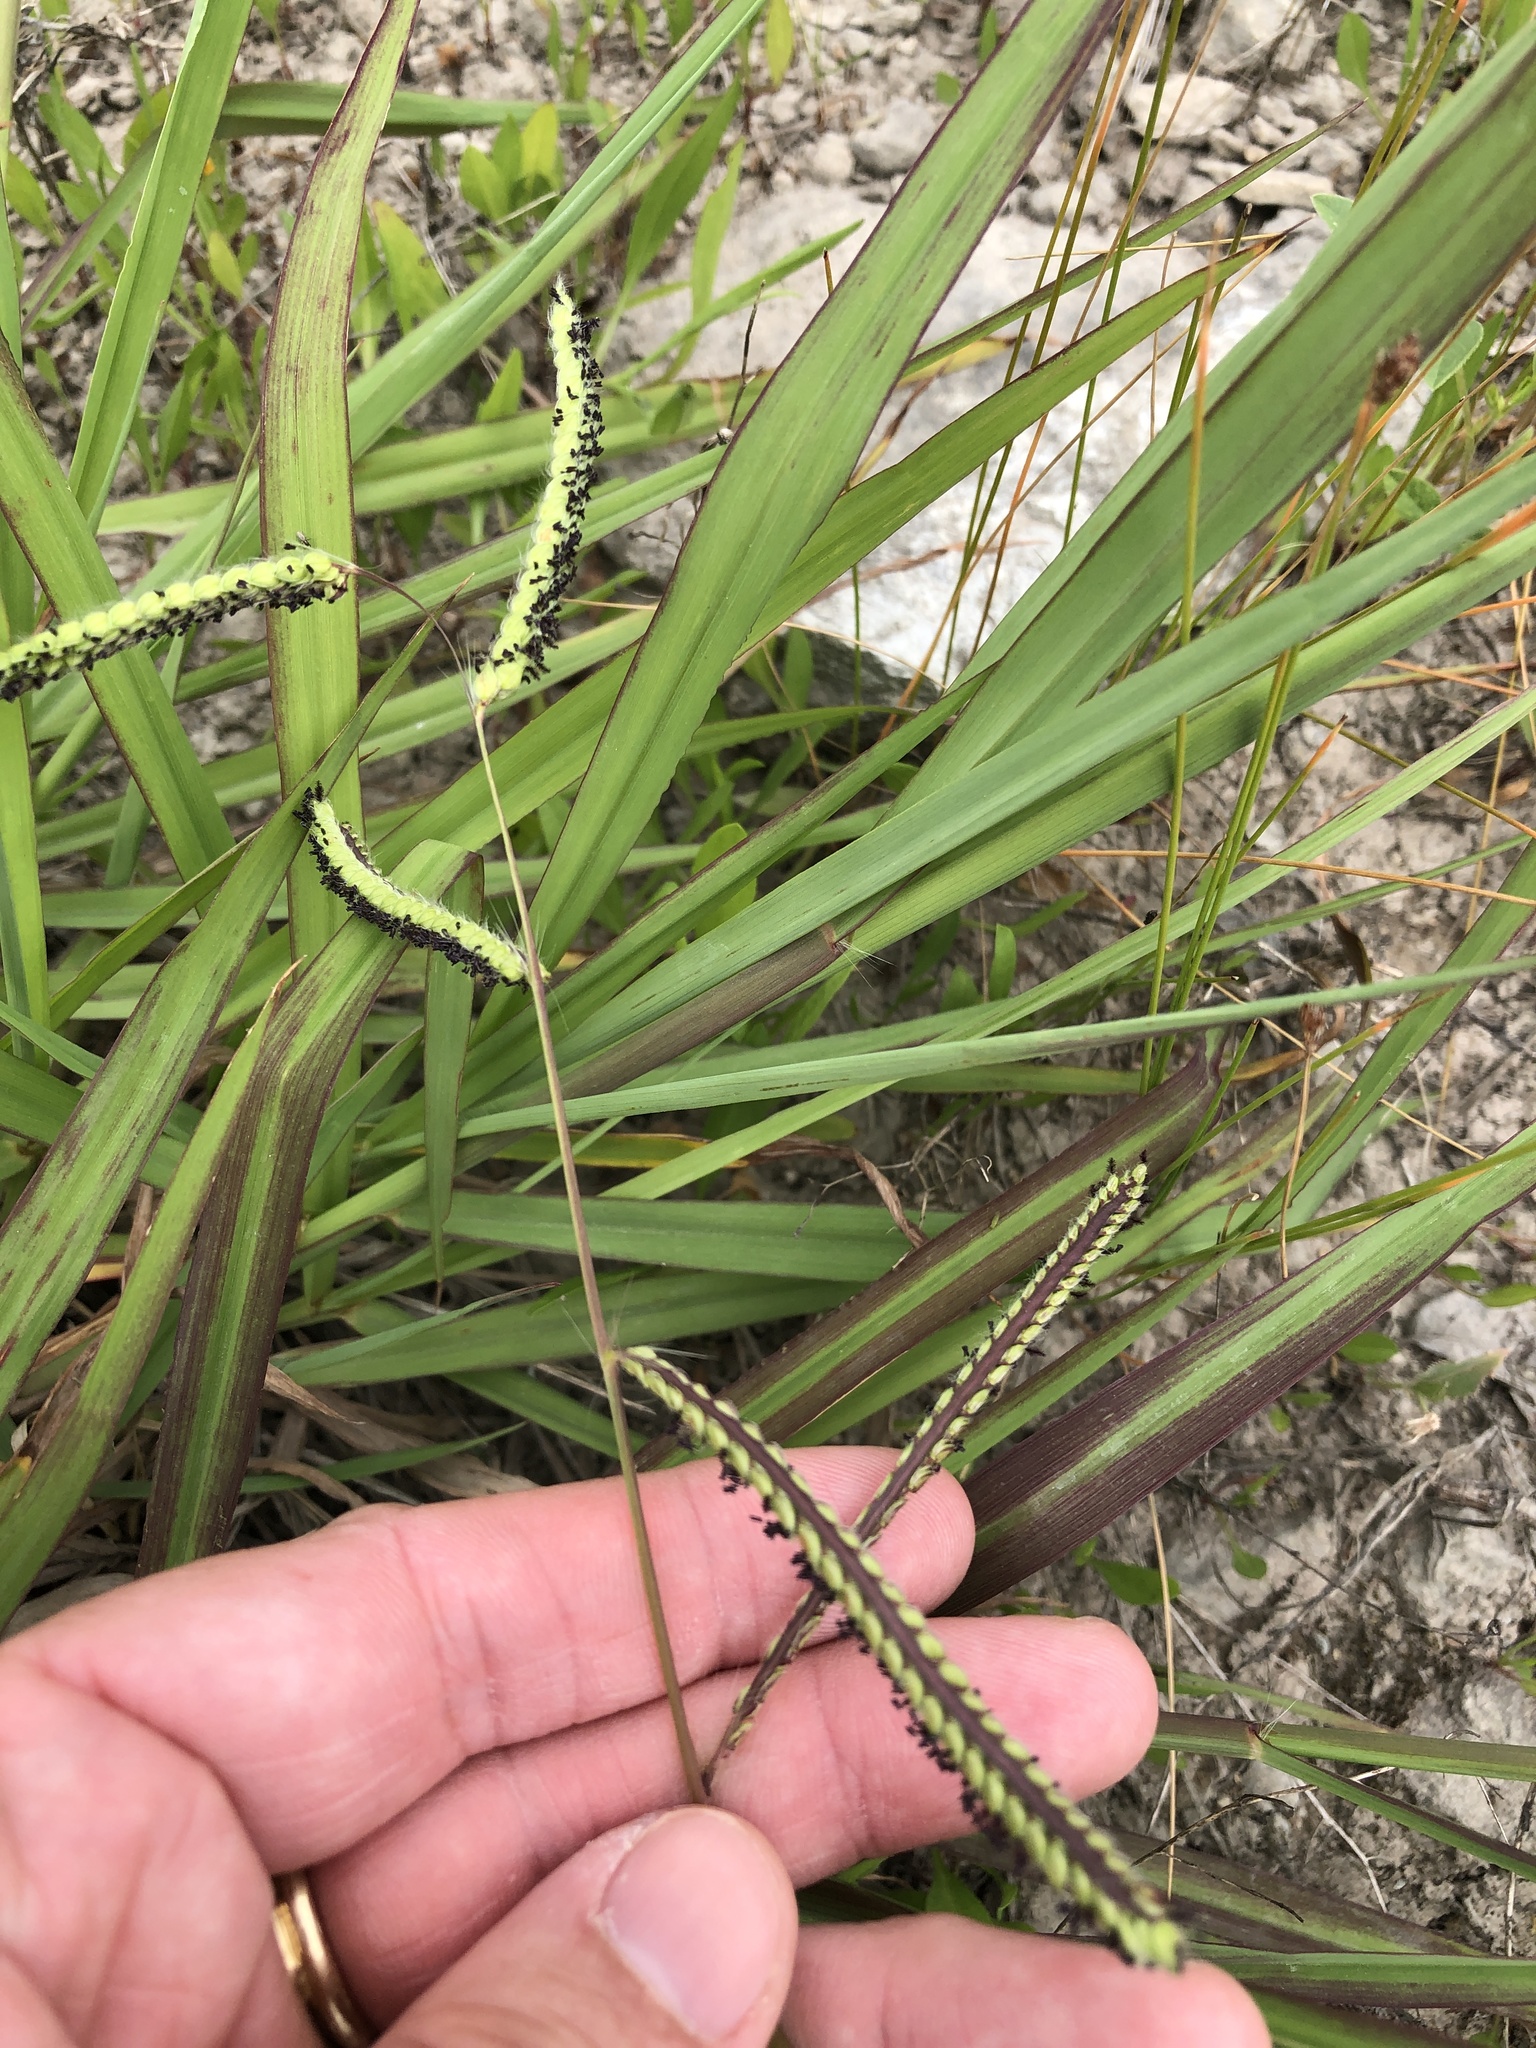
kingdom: Plantae
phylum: Tracheophyta
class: Liliopsida
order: Poales
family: Poaceae
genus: Paspalum
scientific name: Paspalum dilatatum
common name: Dallisgrass
